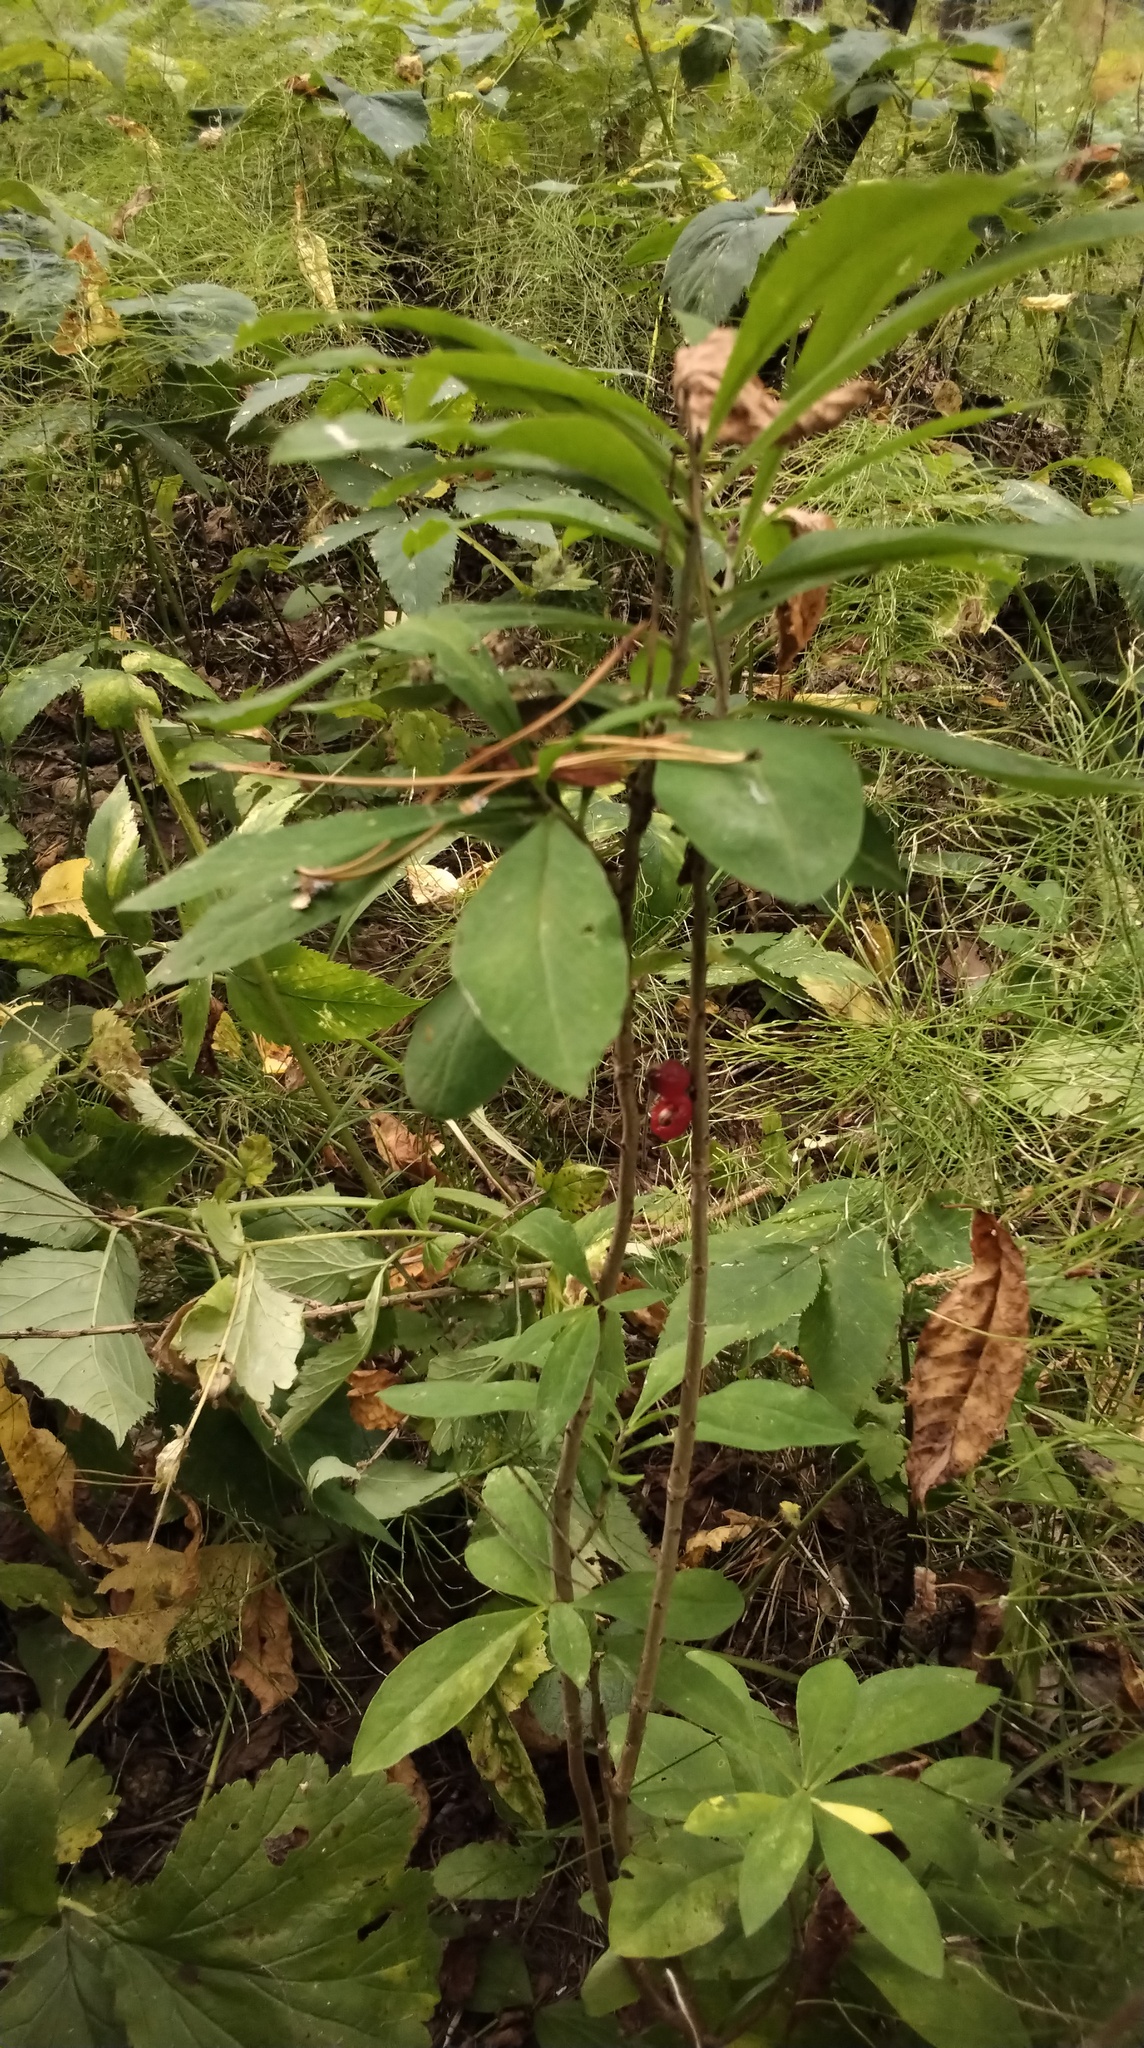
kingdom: Plantae
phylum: Tracheophyta
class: Magnoliopsida
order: Malvales
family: Thymelaeaceae
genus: Daphne
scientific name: Daphne mezereum
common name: Mezereon
